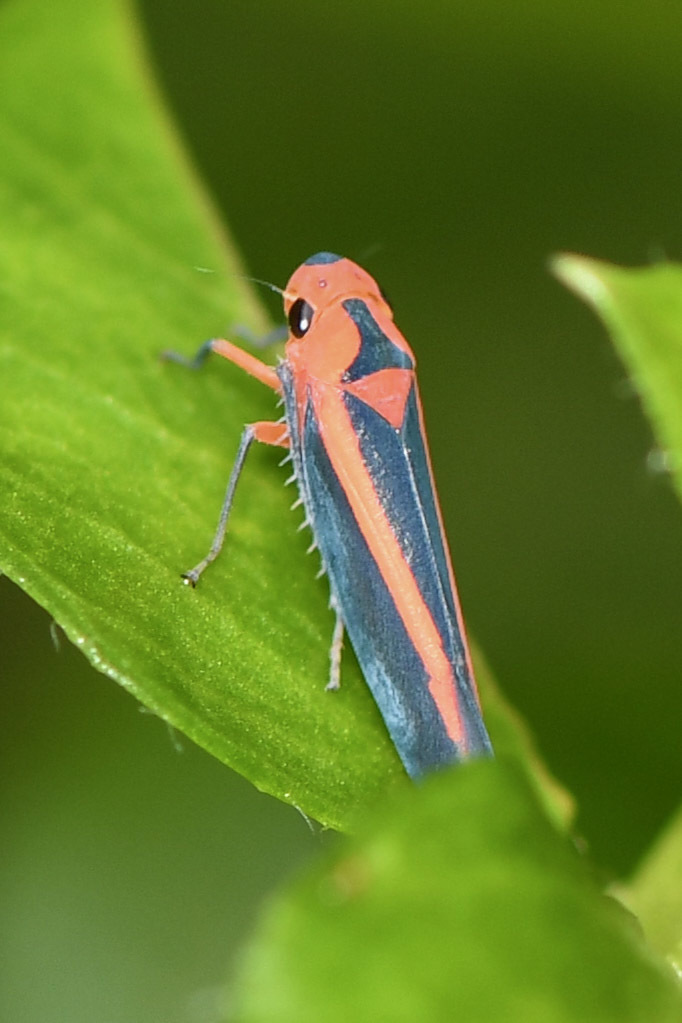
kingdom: Animalia
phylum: Arthropoda
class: Insecta
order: Hemiptera
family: Cicadellidae
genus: Gillonella
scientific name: Gillonella ampulla
